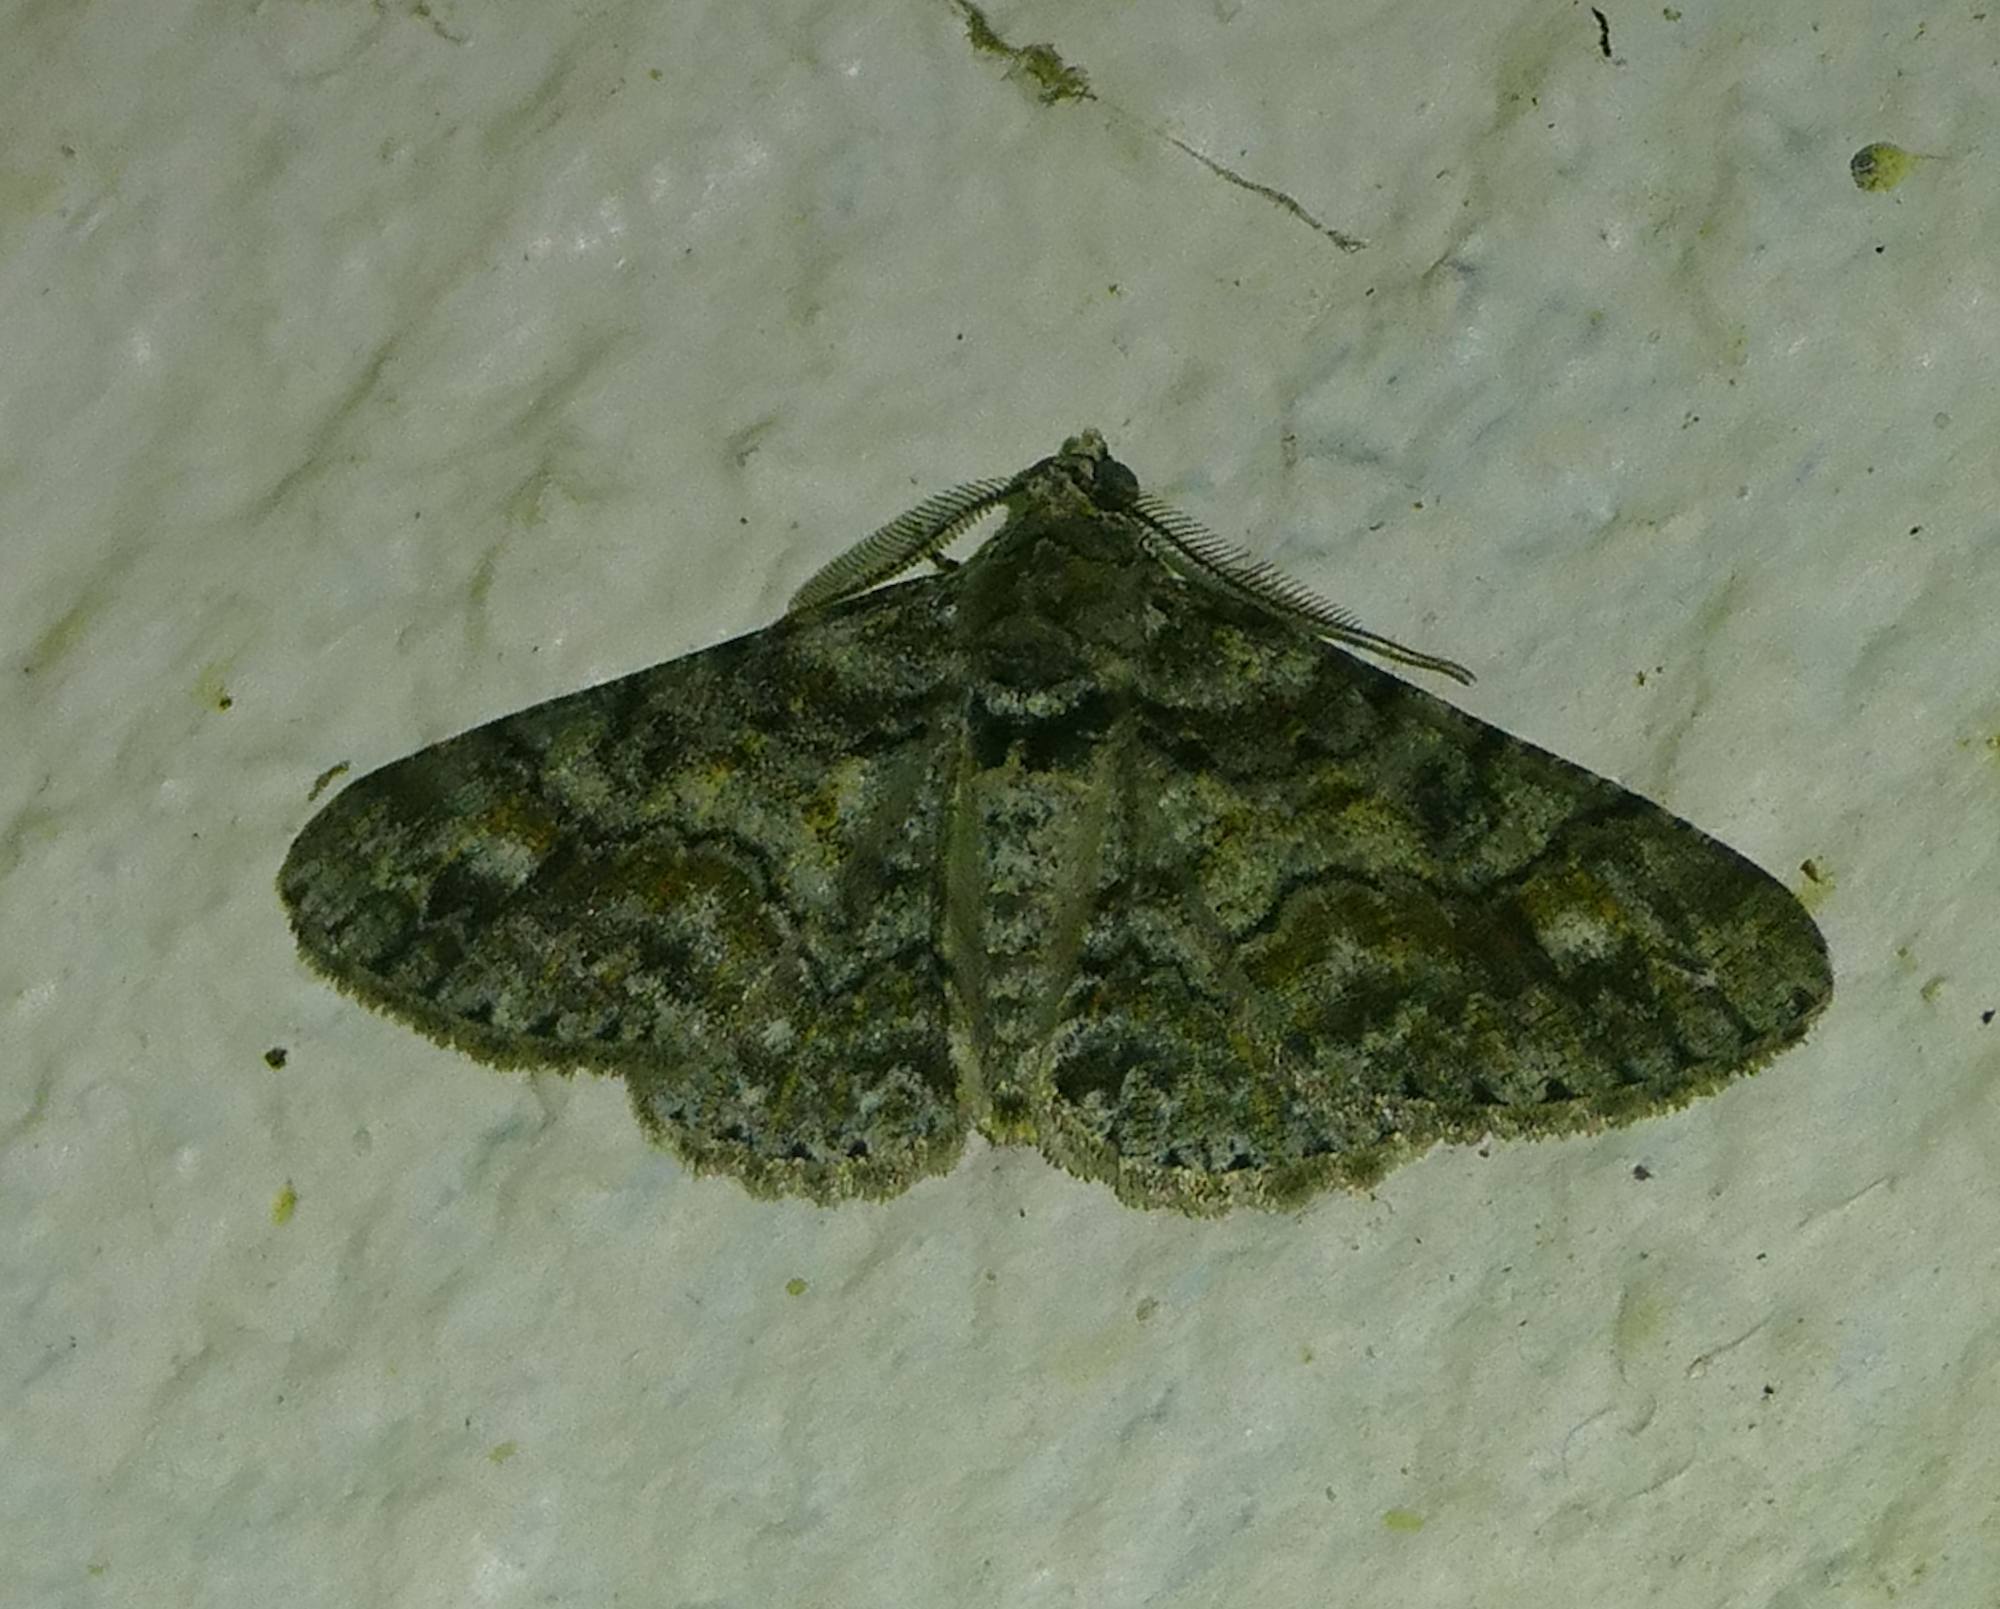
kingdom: Animalia
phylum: Arthropoda
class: Insecta
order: Lepidoptera
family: Geometridae
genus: Cleora
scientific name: Cleora sublunaria
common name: Double-lined gray
